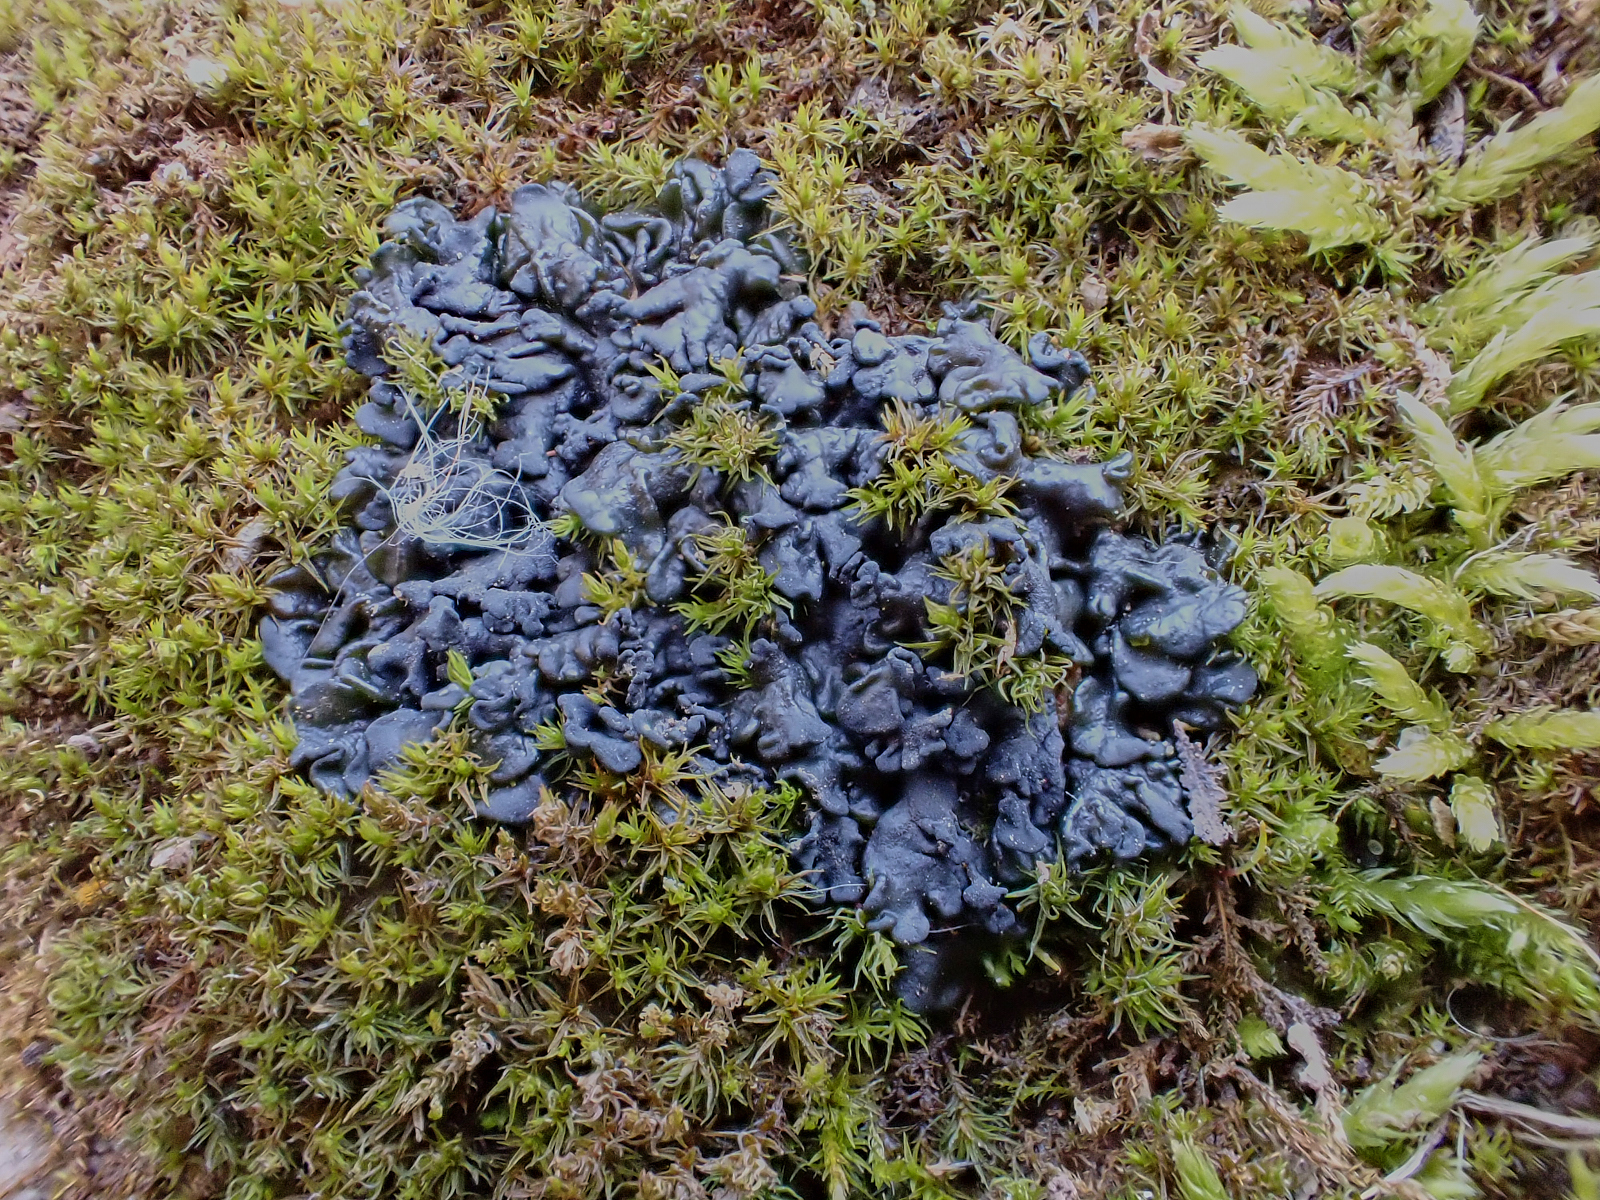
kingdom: Fungi
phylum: Ascomycota
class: Lecanoromycetes
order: Peltigerales
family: Collemataceae
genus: Enchylium
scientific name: Enchylium tenax
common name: Jelly lichen
